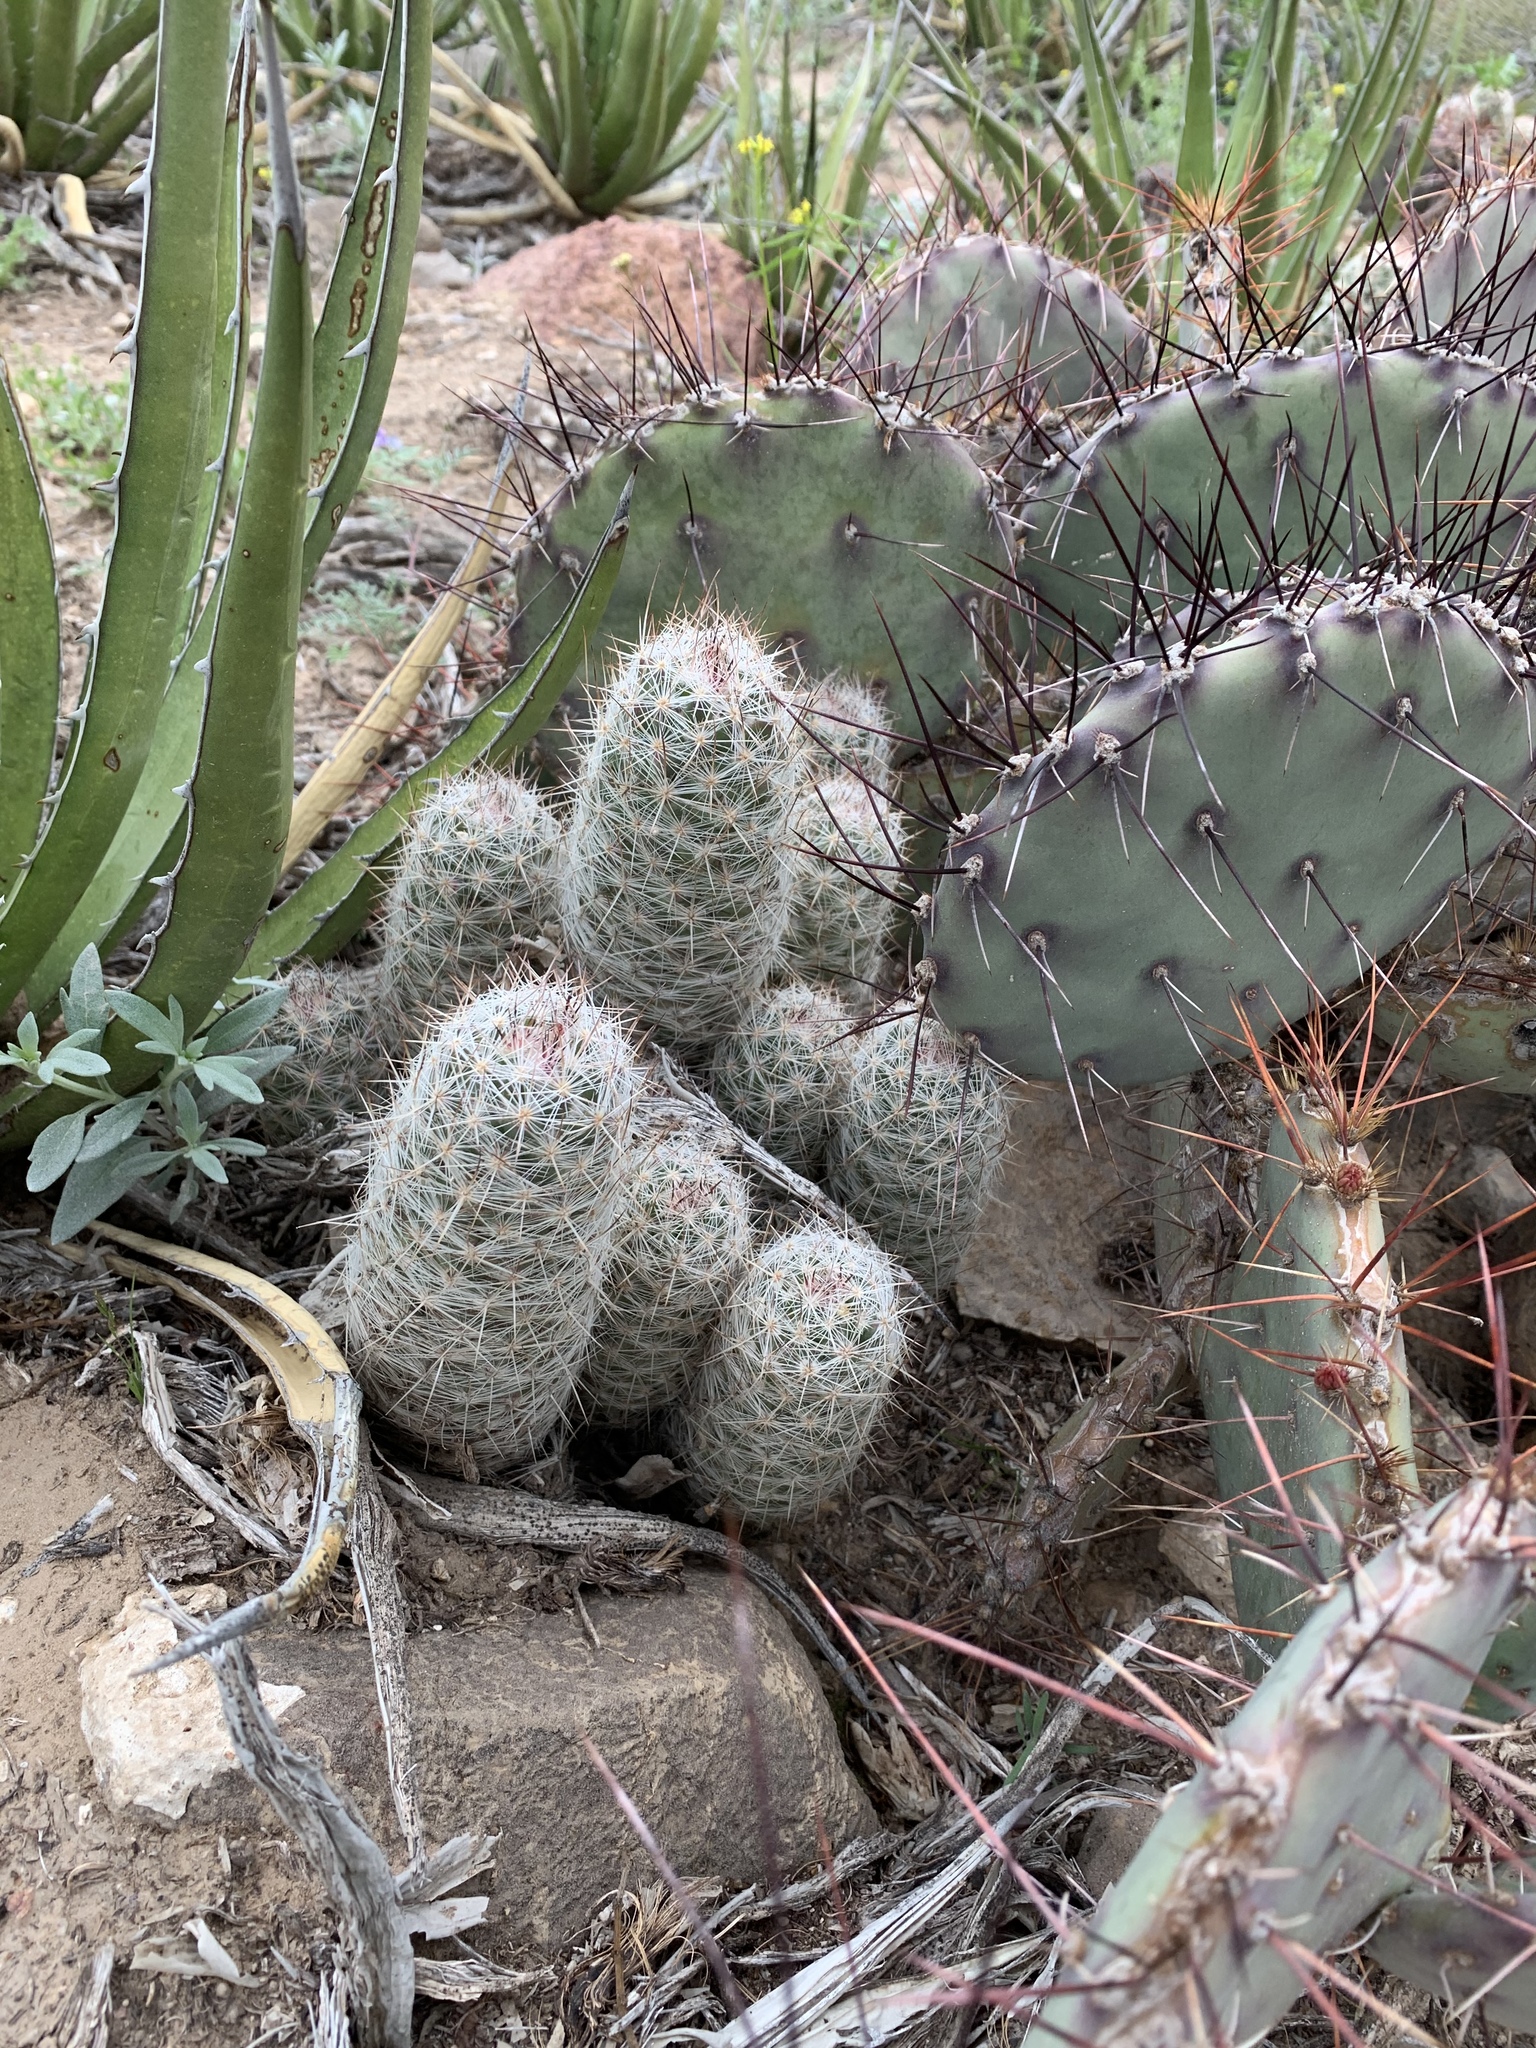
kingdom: Plantae
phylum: Tracheophyta
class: Magnoliopsida
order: Caryophyllales
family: Cactaceae
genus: Pelecyphora
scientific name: Pelecyphora tuberculosa
